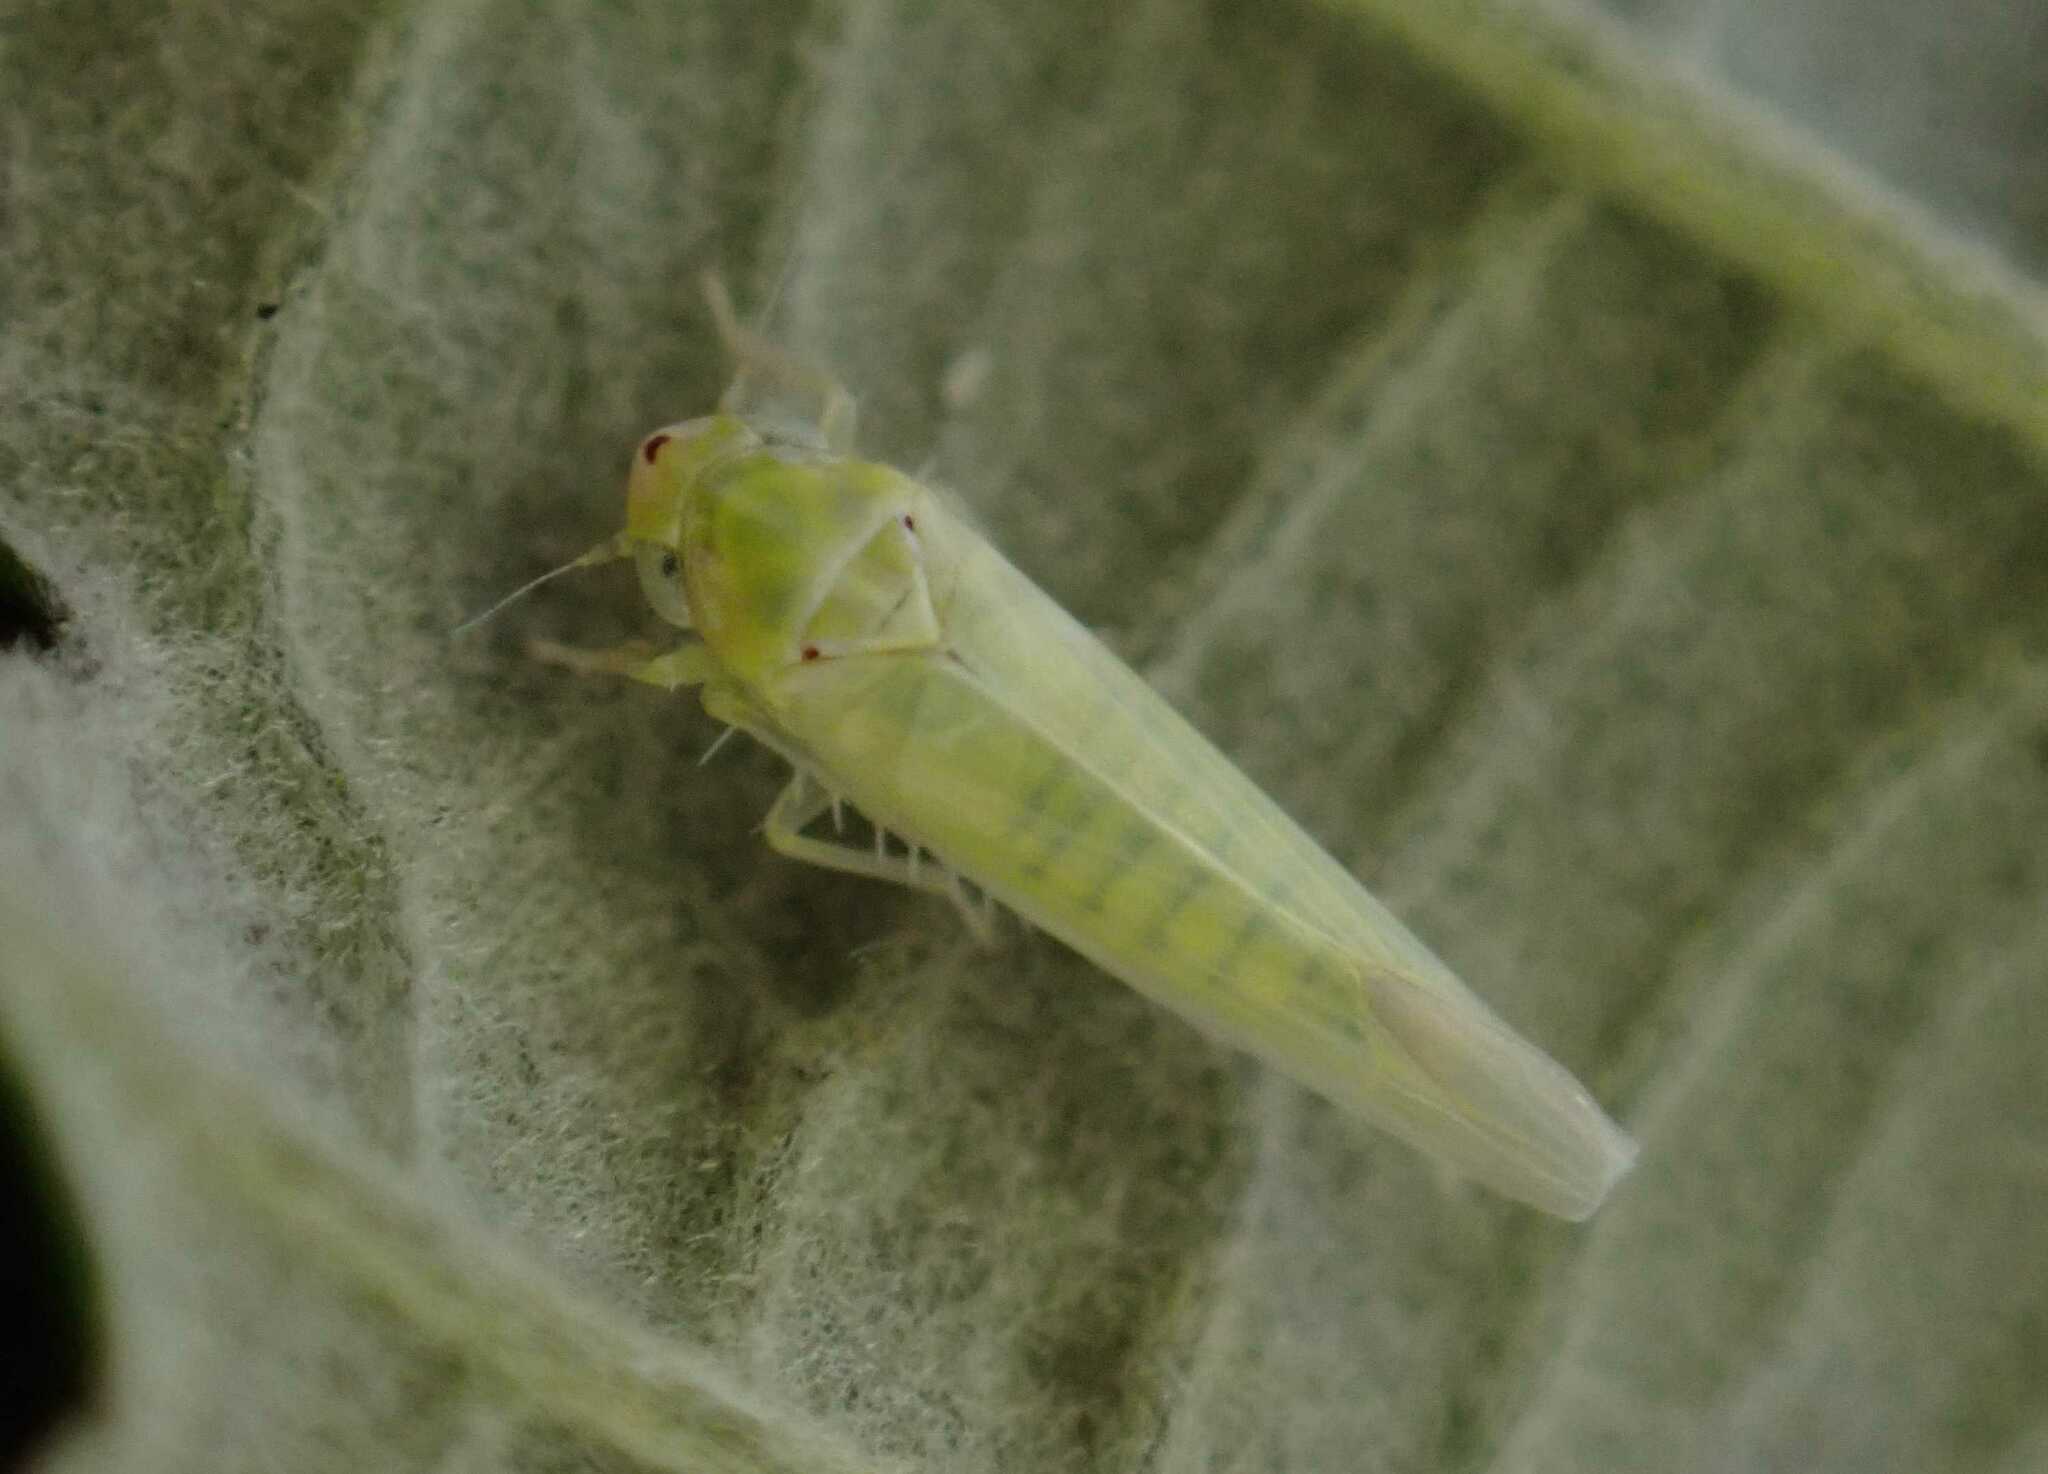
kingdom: Animalia
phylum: Arthropoda
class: Insecta
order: Hemiptera
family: Cicadellidae
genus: Zygina
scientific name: Zygina nivea
